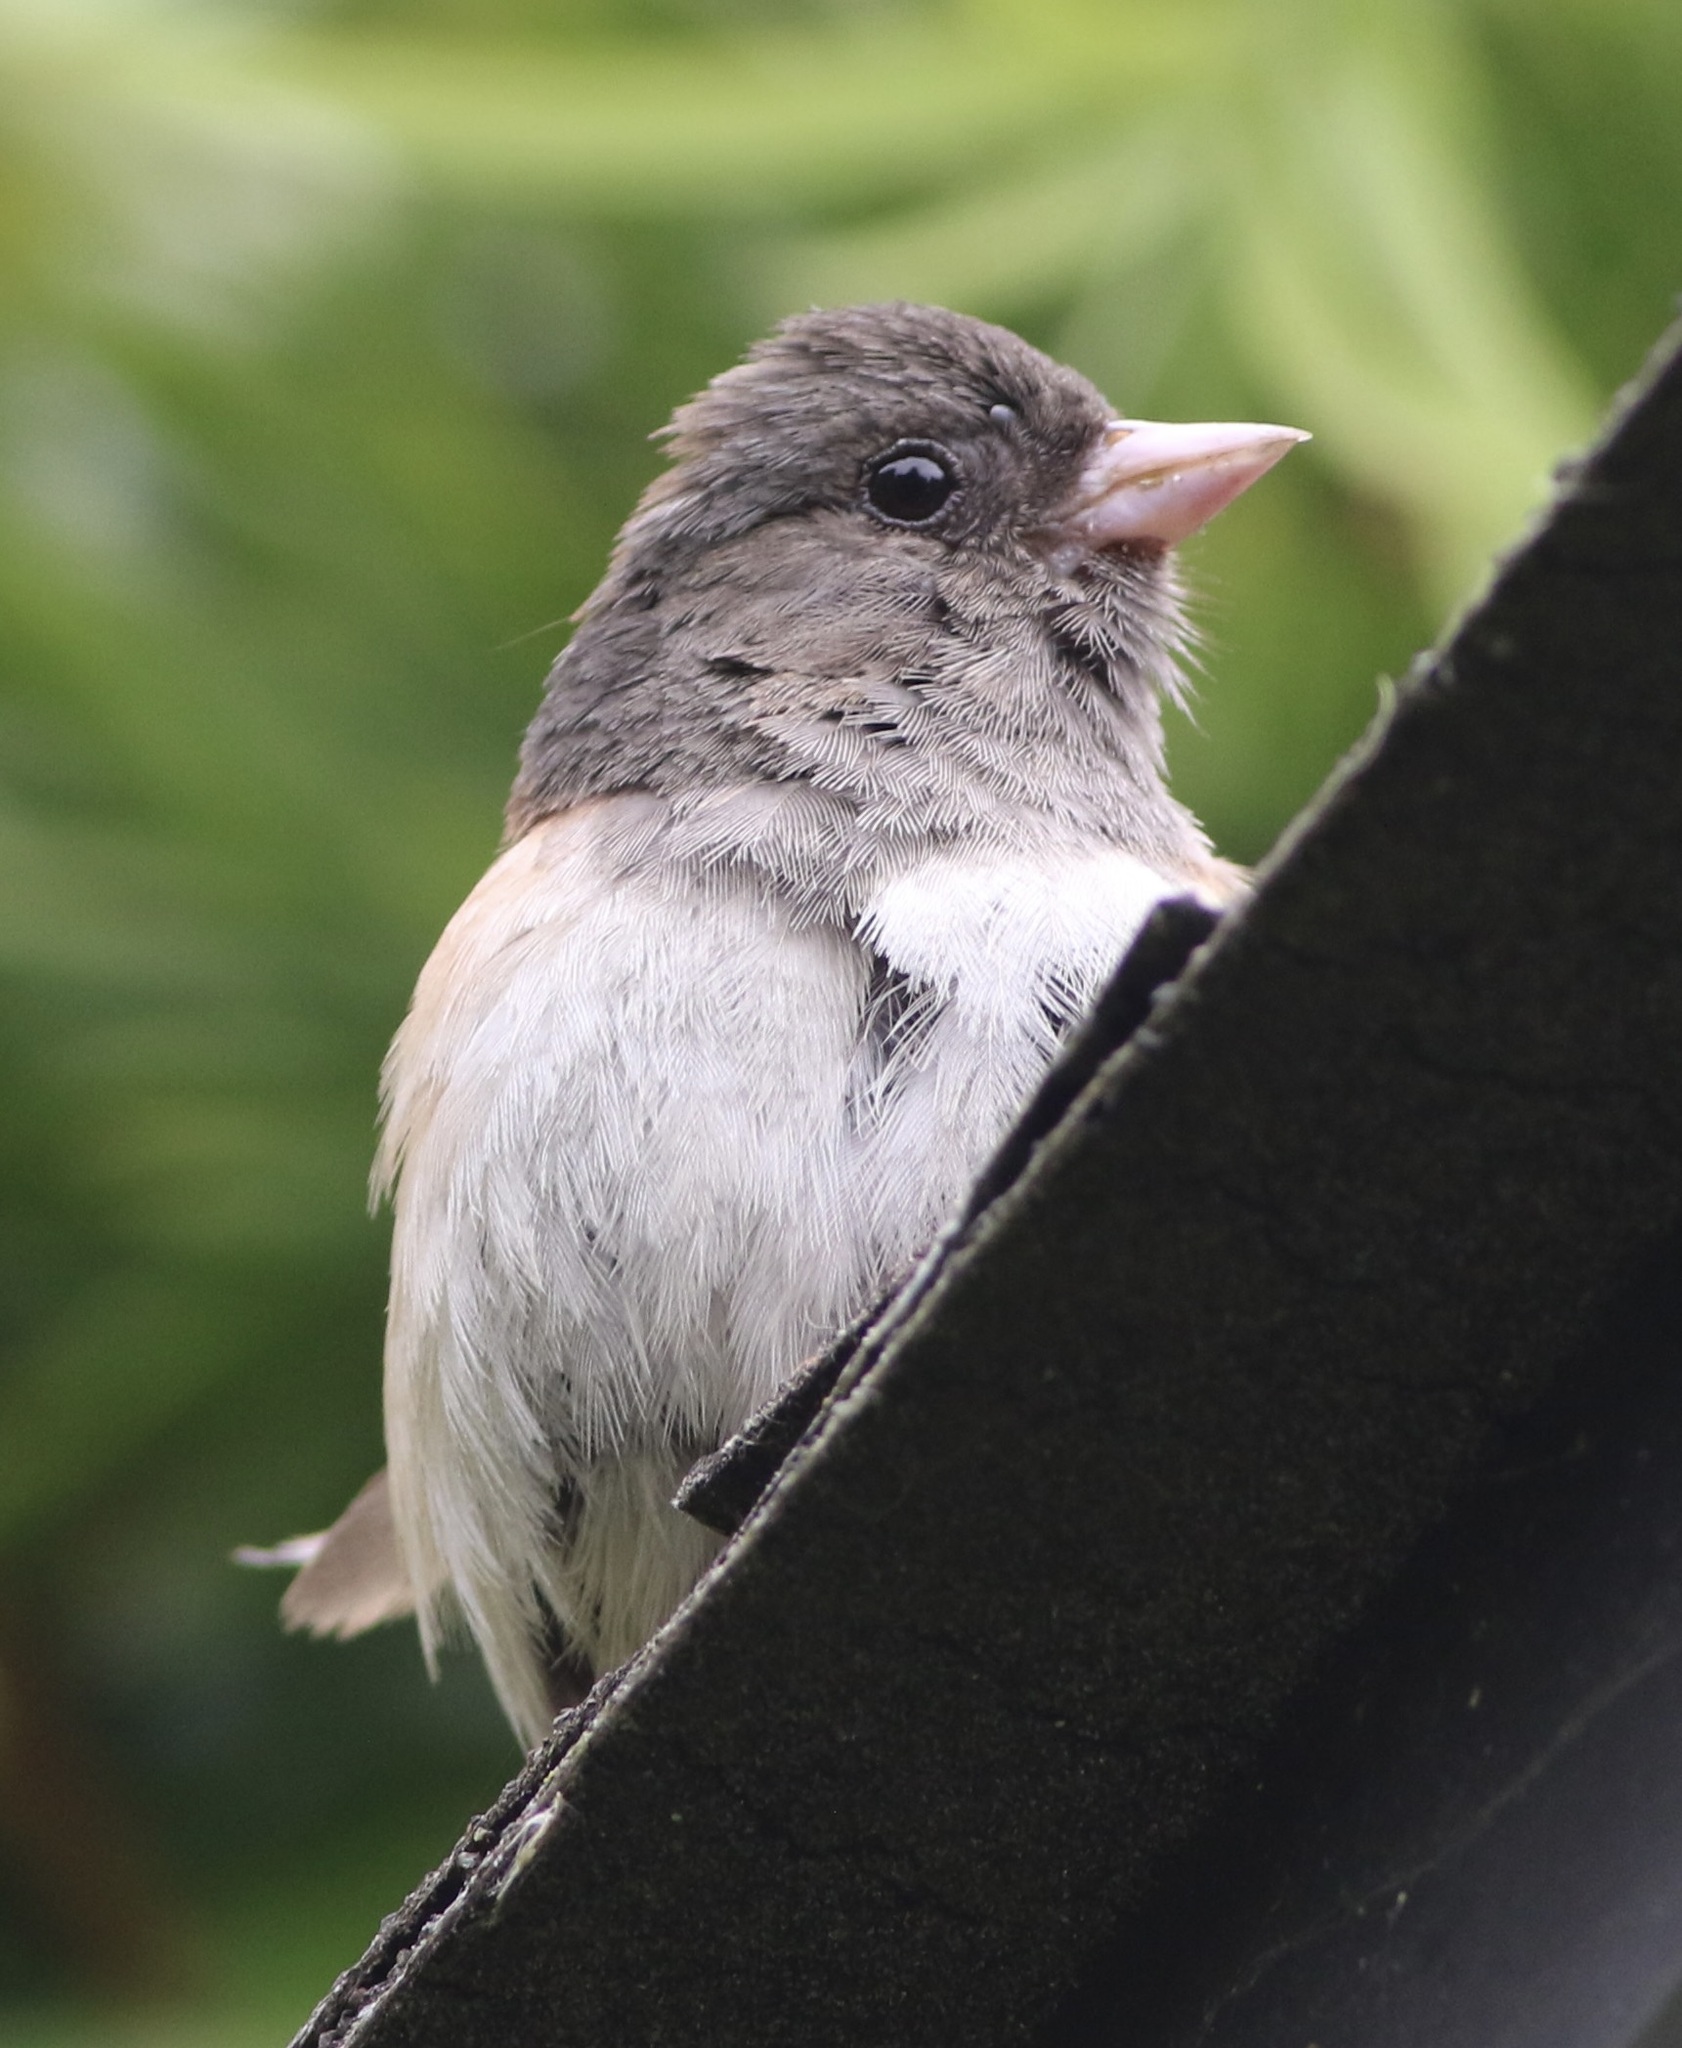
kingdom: Animalia
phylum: Chordata
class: Aves
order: Passeriformes
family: Passerellidae
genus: Junco
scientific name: Junco hyemalis
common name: Dark-eyed junco
